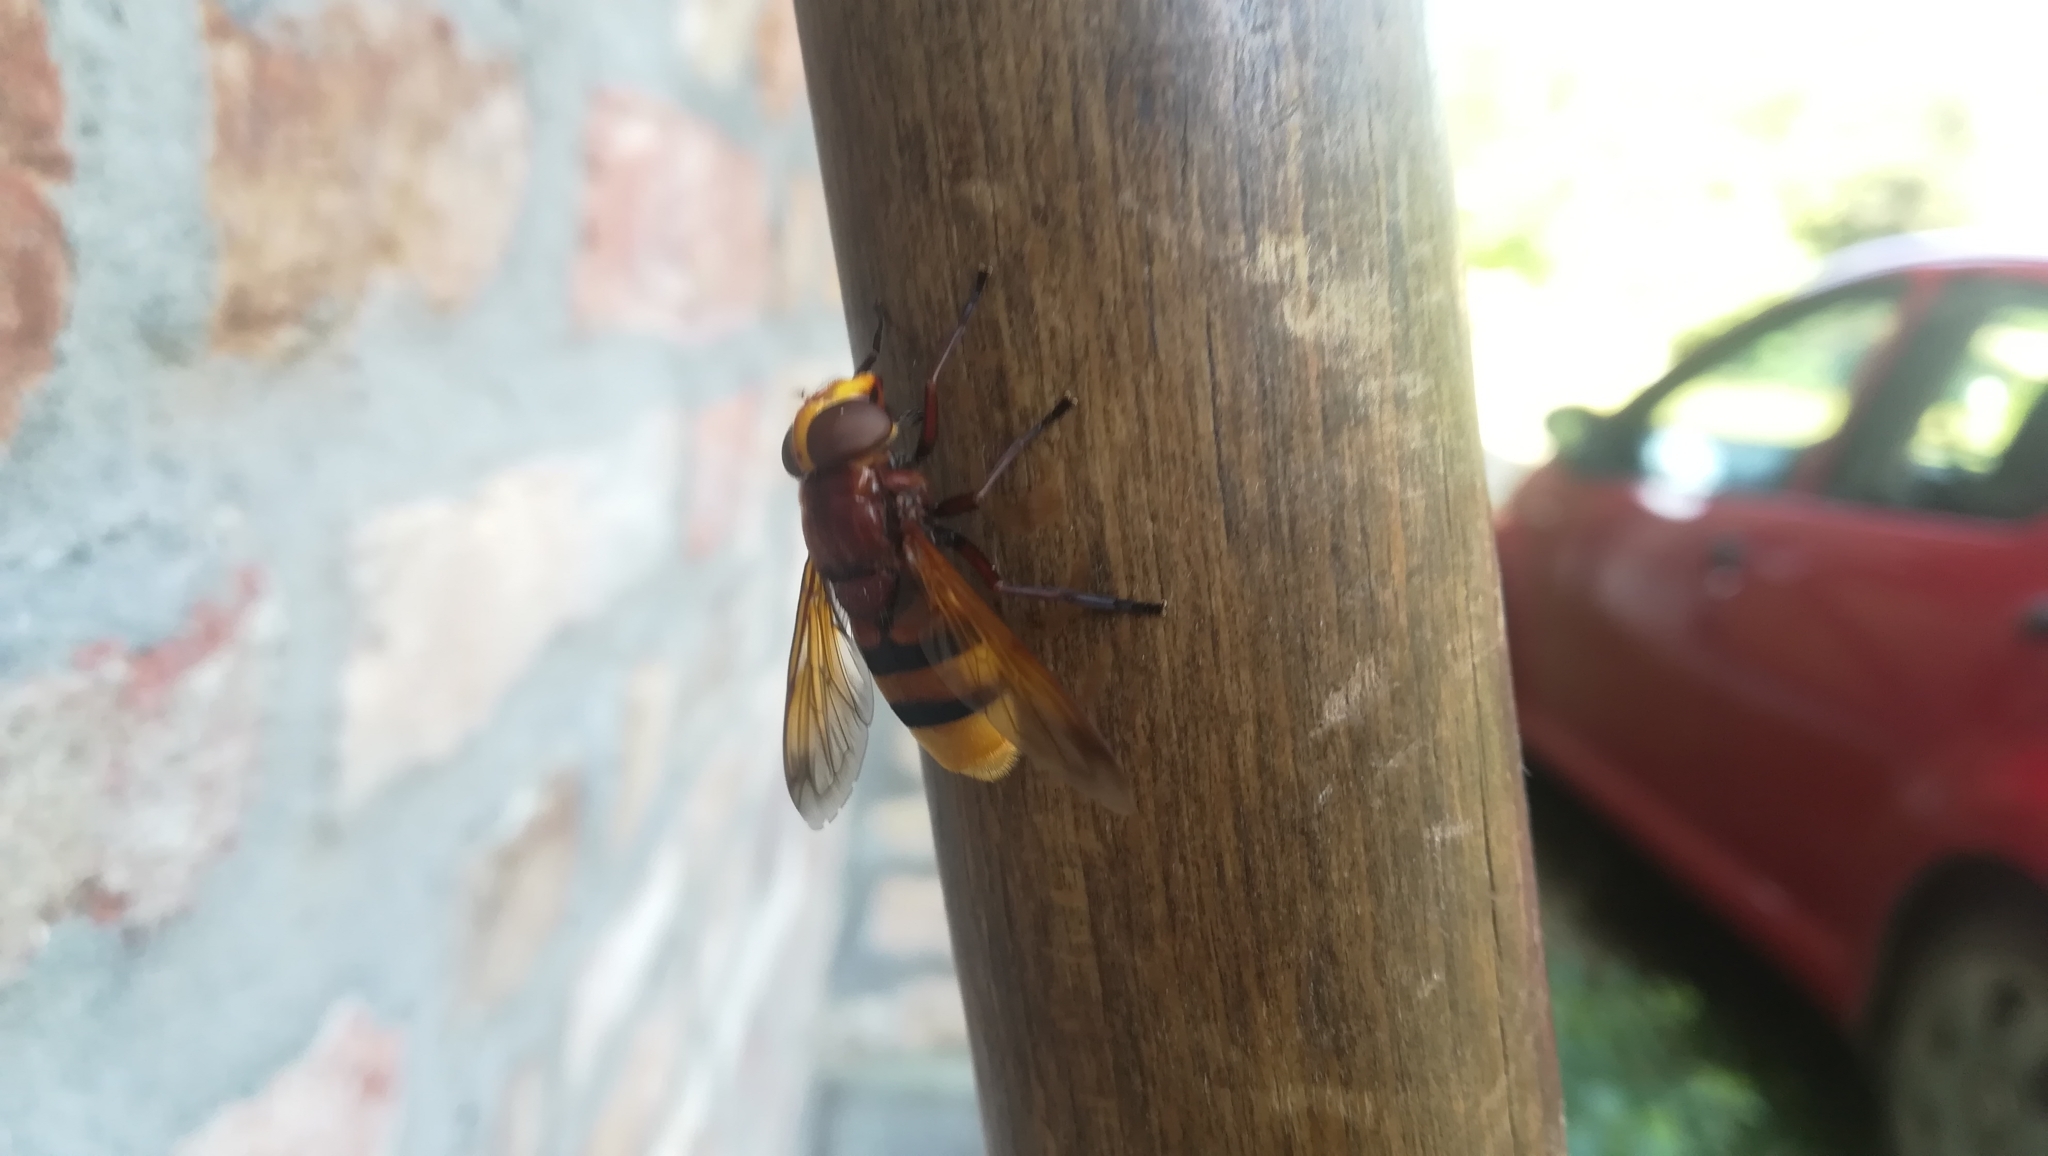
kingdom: Animalia
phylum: Arthropoda
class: Insecta
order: Diptera
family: Syrphidae
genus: Volucella
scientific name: Volucella zonaria
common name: Hornet hoverfly
